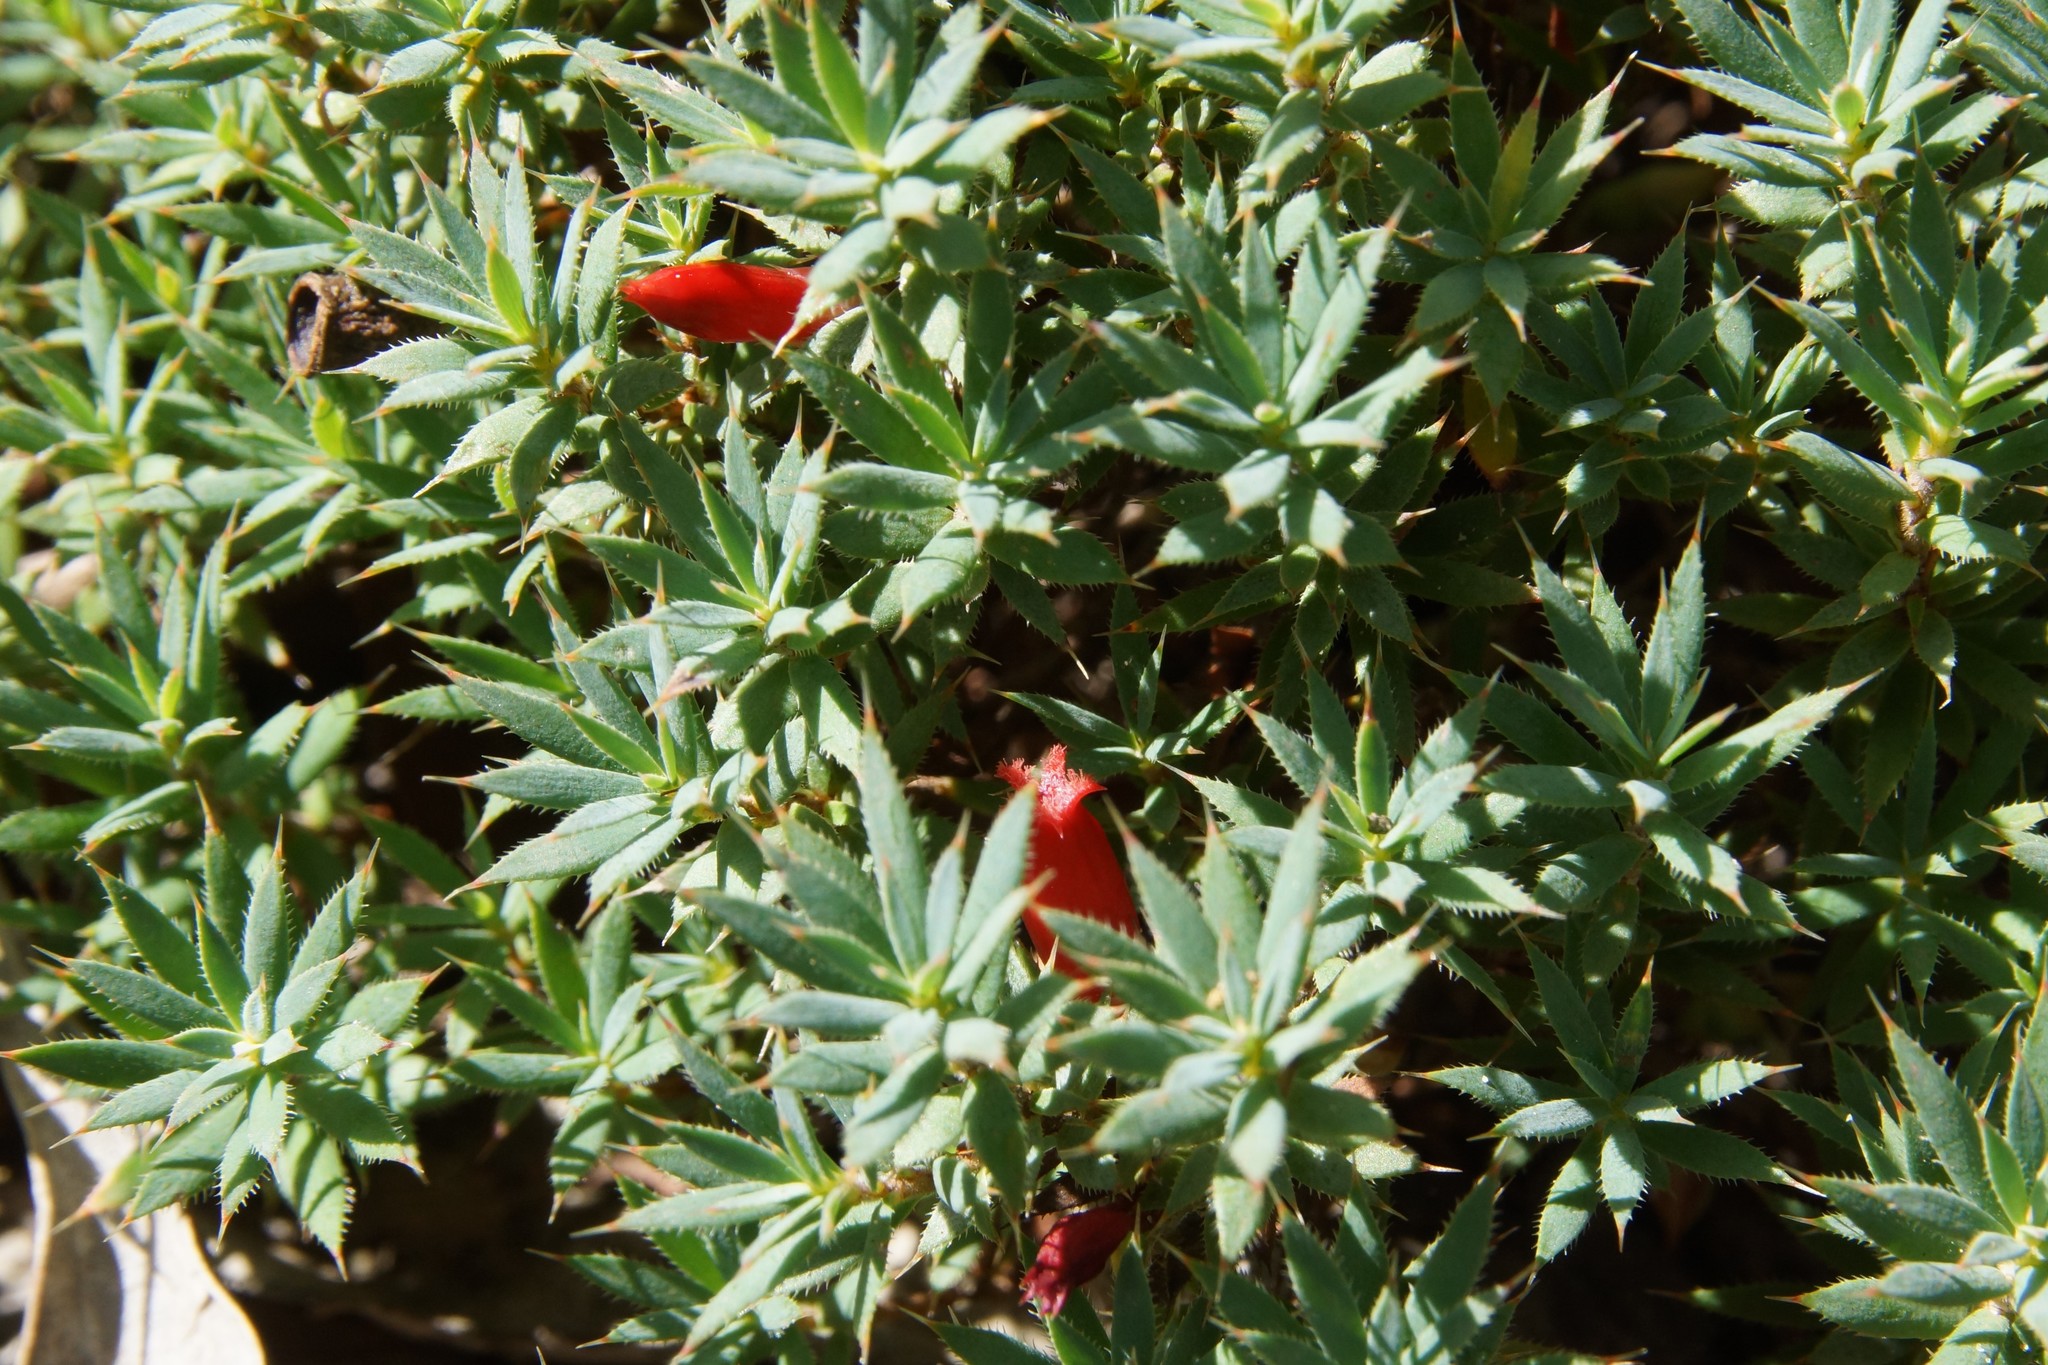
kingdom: Plantae
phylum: Tracheophyta
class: Magnoliopsida
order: Ericales
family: Ericaceae
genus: Styphelia
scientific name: Styphelia humifusa
